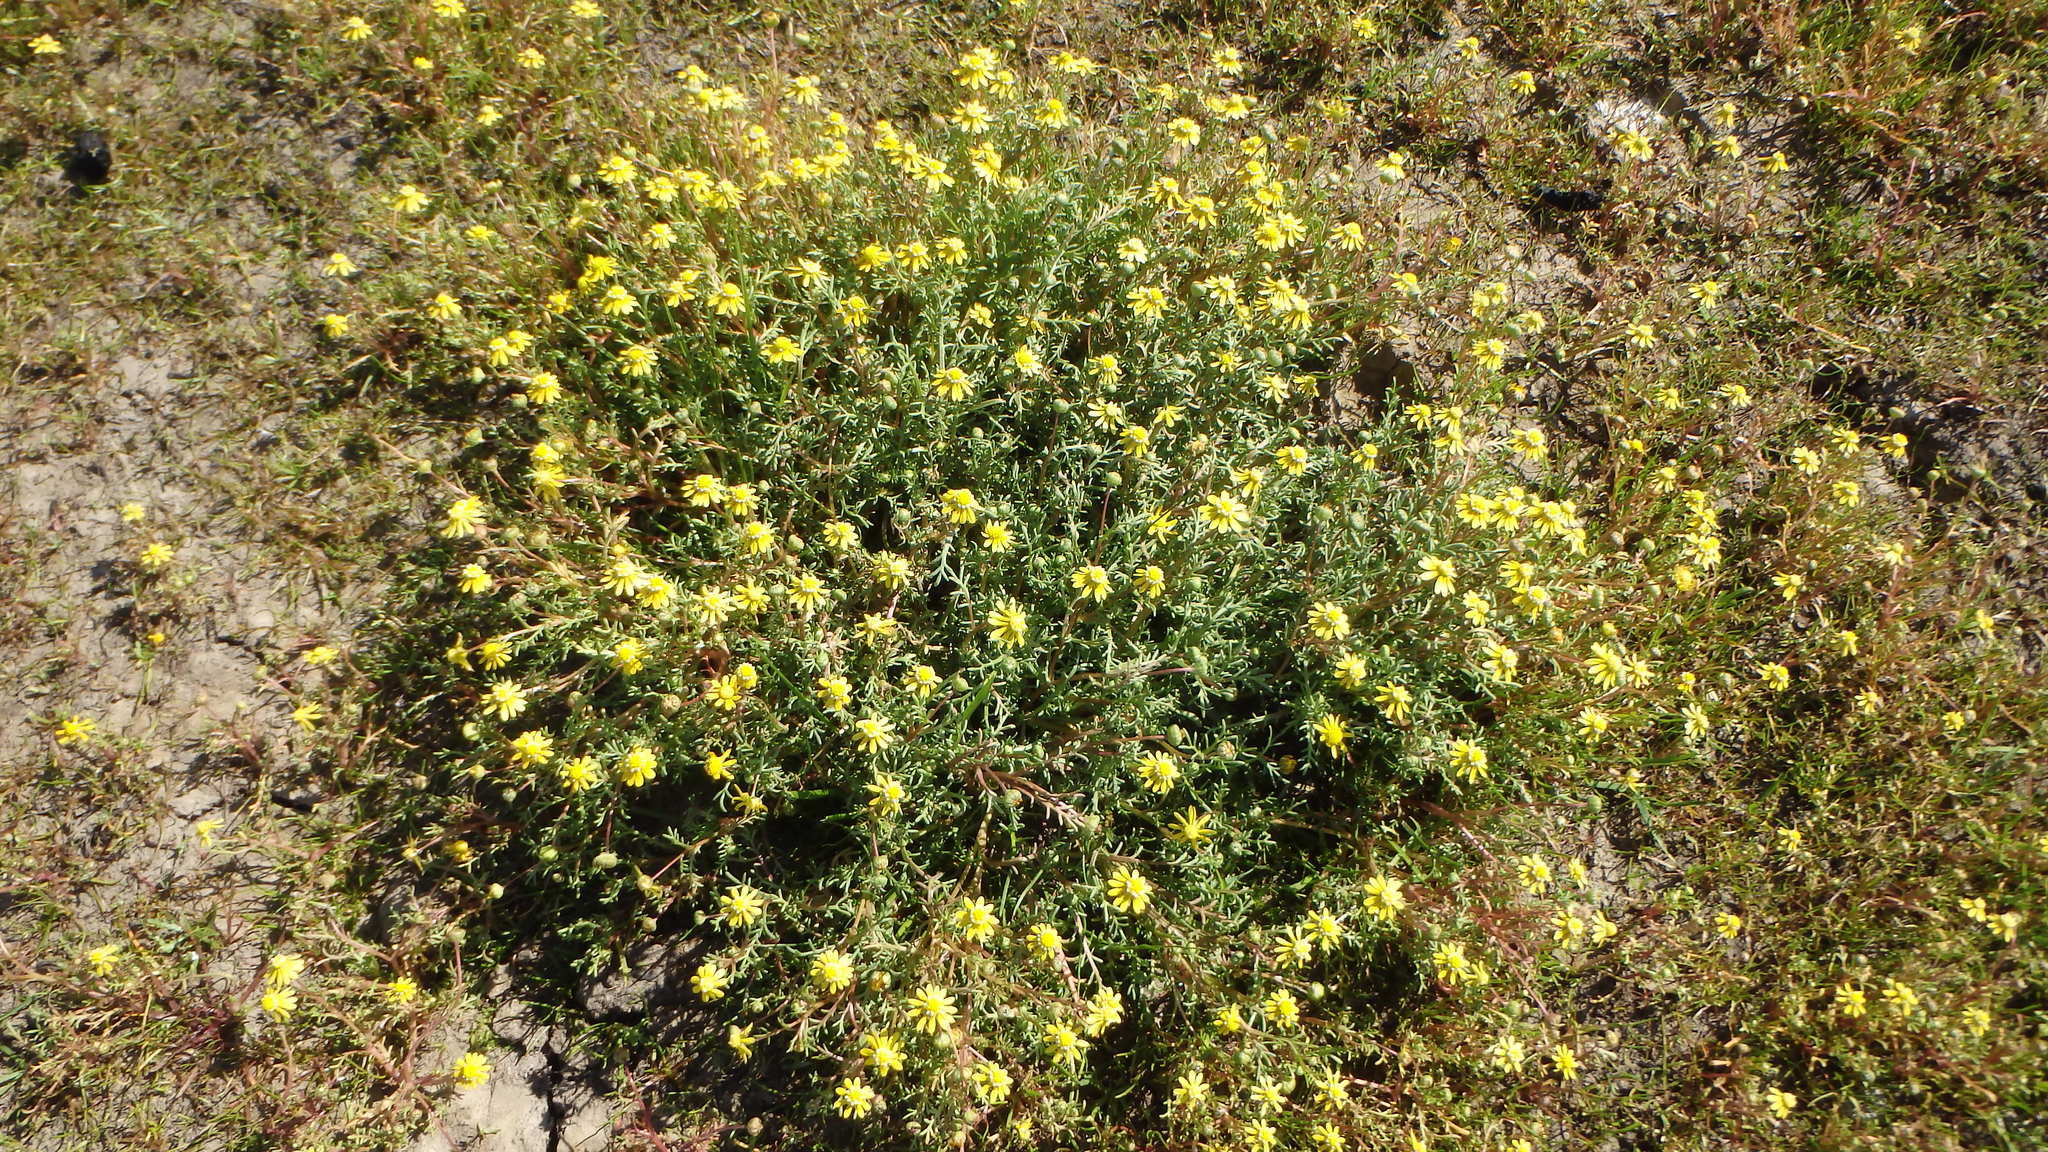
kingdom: Plantae
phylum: Tracheophyta
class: Magnoliopsida
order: Asterales
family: Asteraceae
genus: Blennosperma
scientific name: Blennosperma nanum
